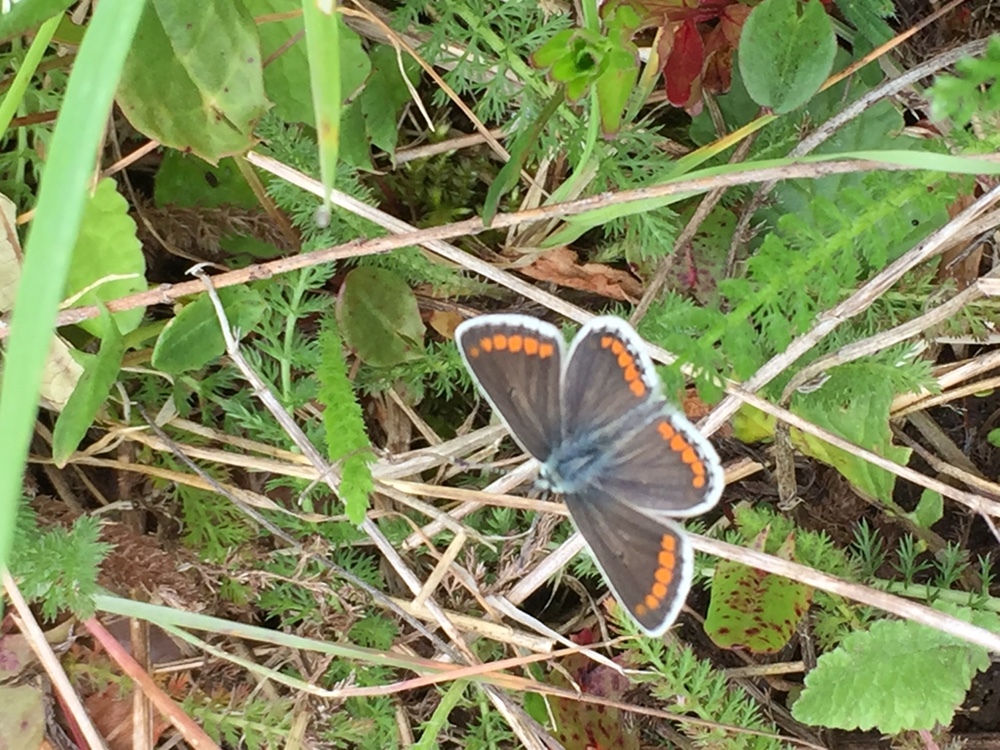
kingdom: Animalia
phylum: Arthropoda
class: Insecta
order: Lepidoptera
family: Lycaenidae
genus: Aricia
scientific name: Aricia agestis
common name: Brown argus
